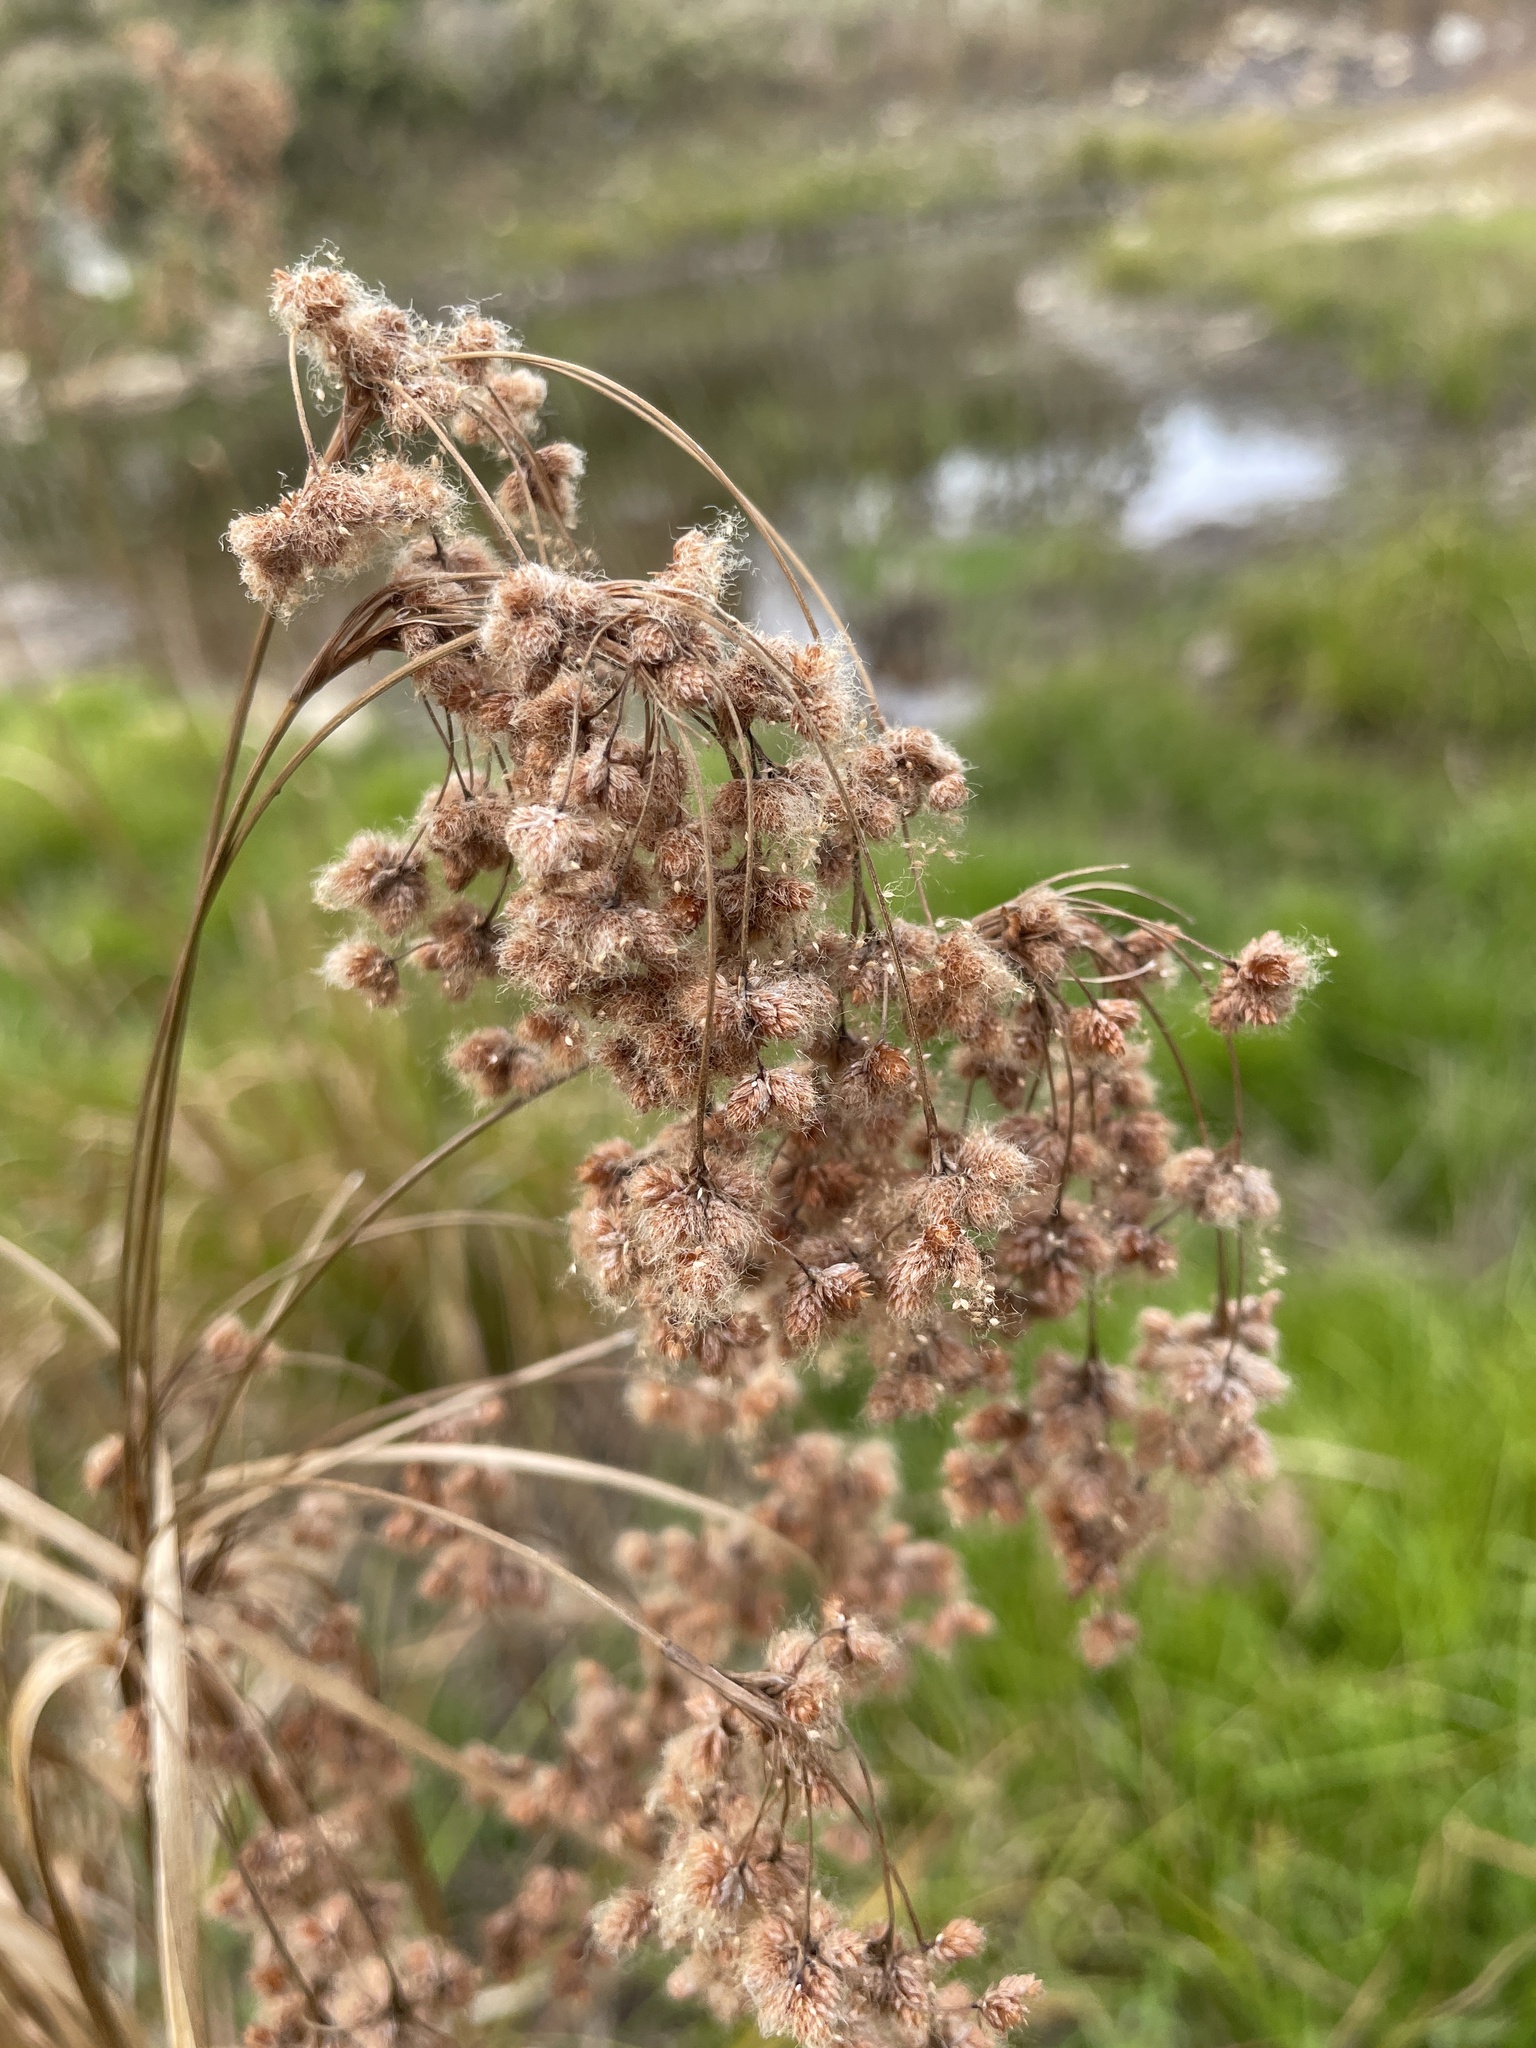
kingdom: Plantae
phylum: Tracheophyta
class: Liliopsida
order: Poales
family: Cyperaceae
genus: Scirpus
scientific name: Scirpus cyperinus
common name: Black-sheathed bulrush
